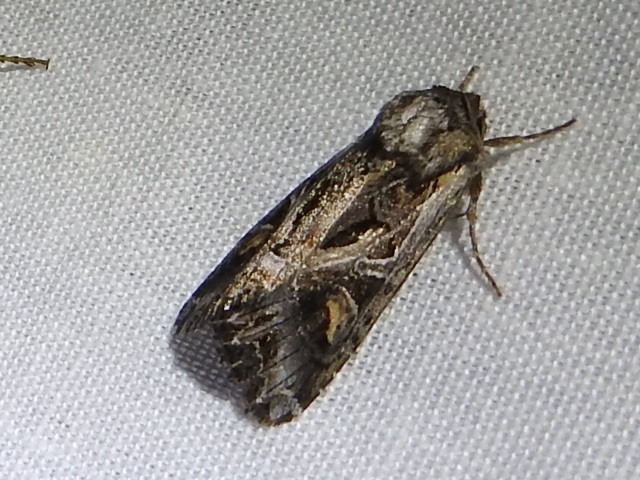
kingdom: Animalia
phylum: Arthropoda
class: Insecta
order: Lepidoptera
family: Noctuidae
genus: Trichordestra
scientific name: Trichordestra prodeniformis
